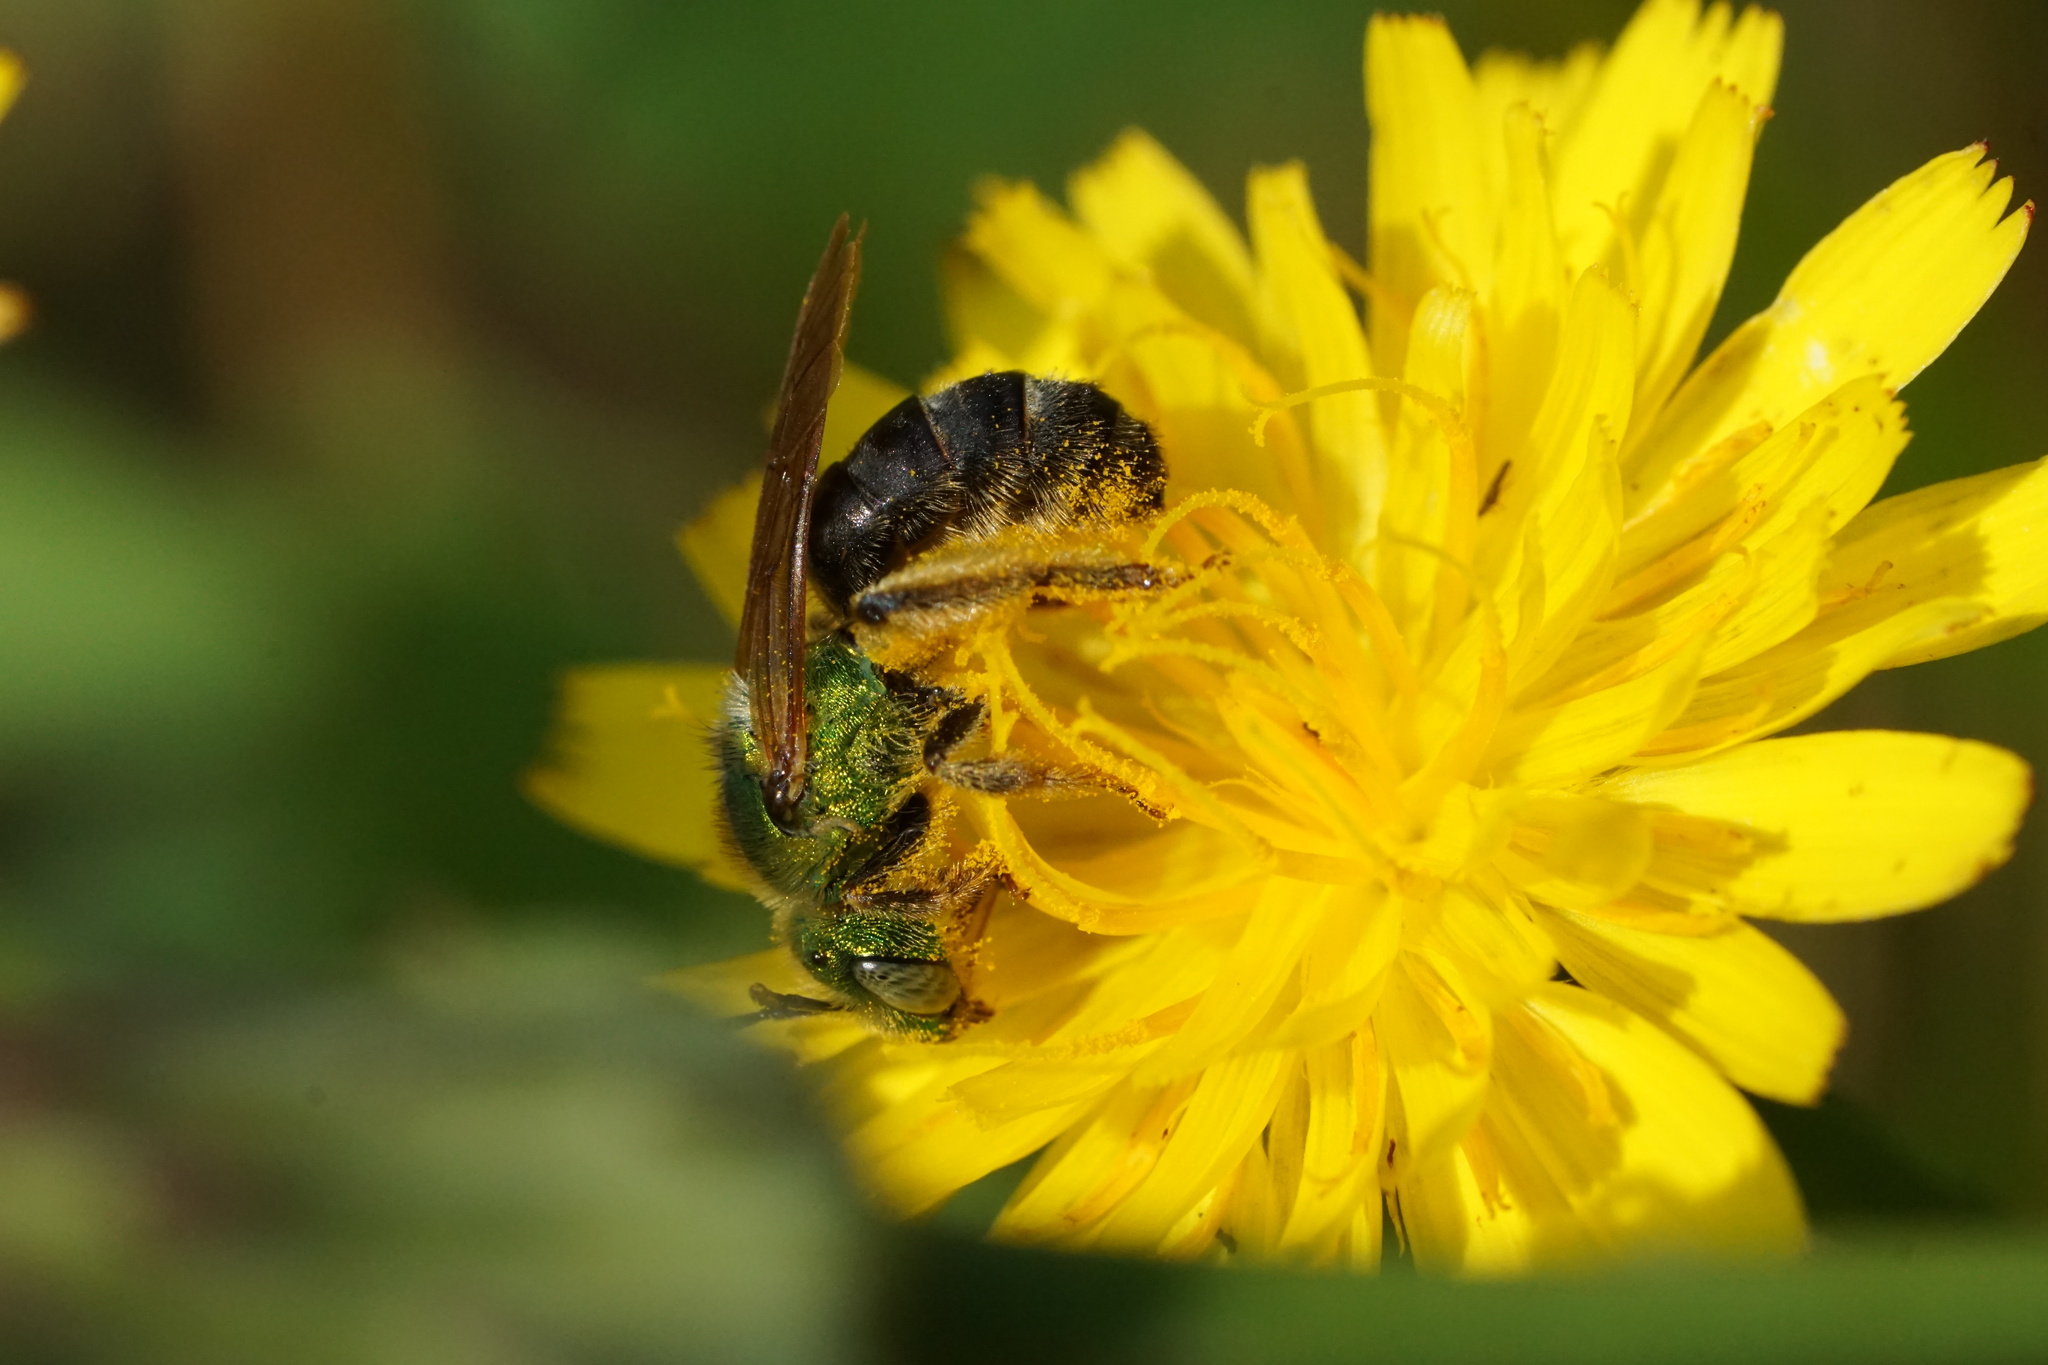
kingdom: Animalia
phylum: Arthropoda
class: Insecta
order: Hymenoptera
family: Halictidae
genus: Agapostemon
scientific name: Agapostemon virescens
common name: Bicolored striped sweat bee
